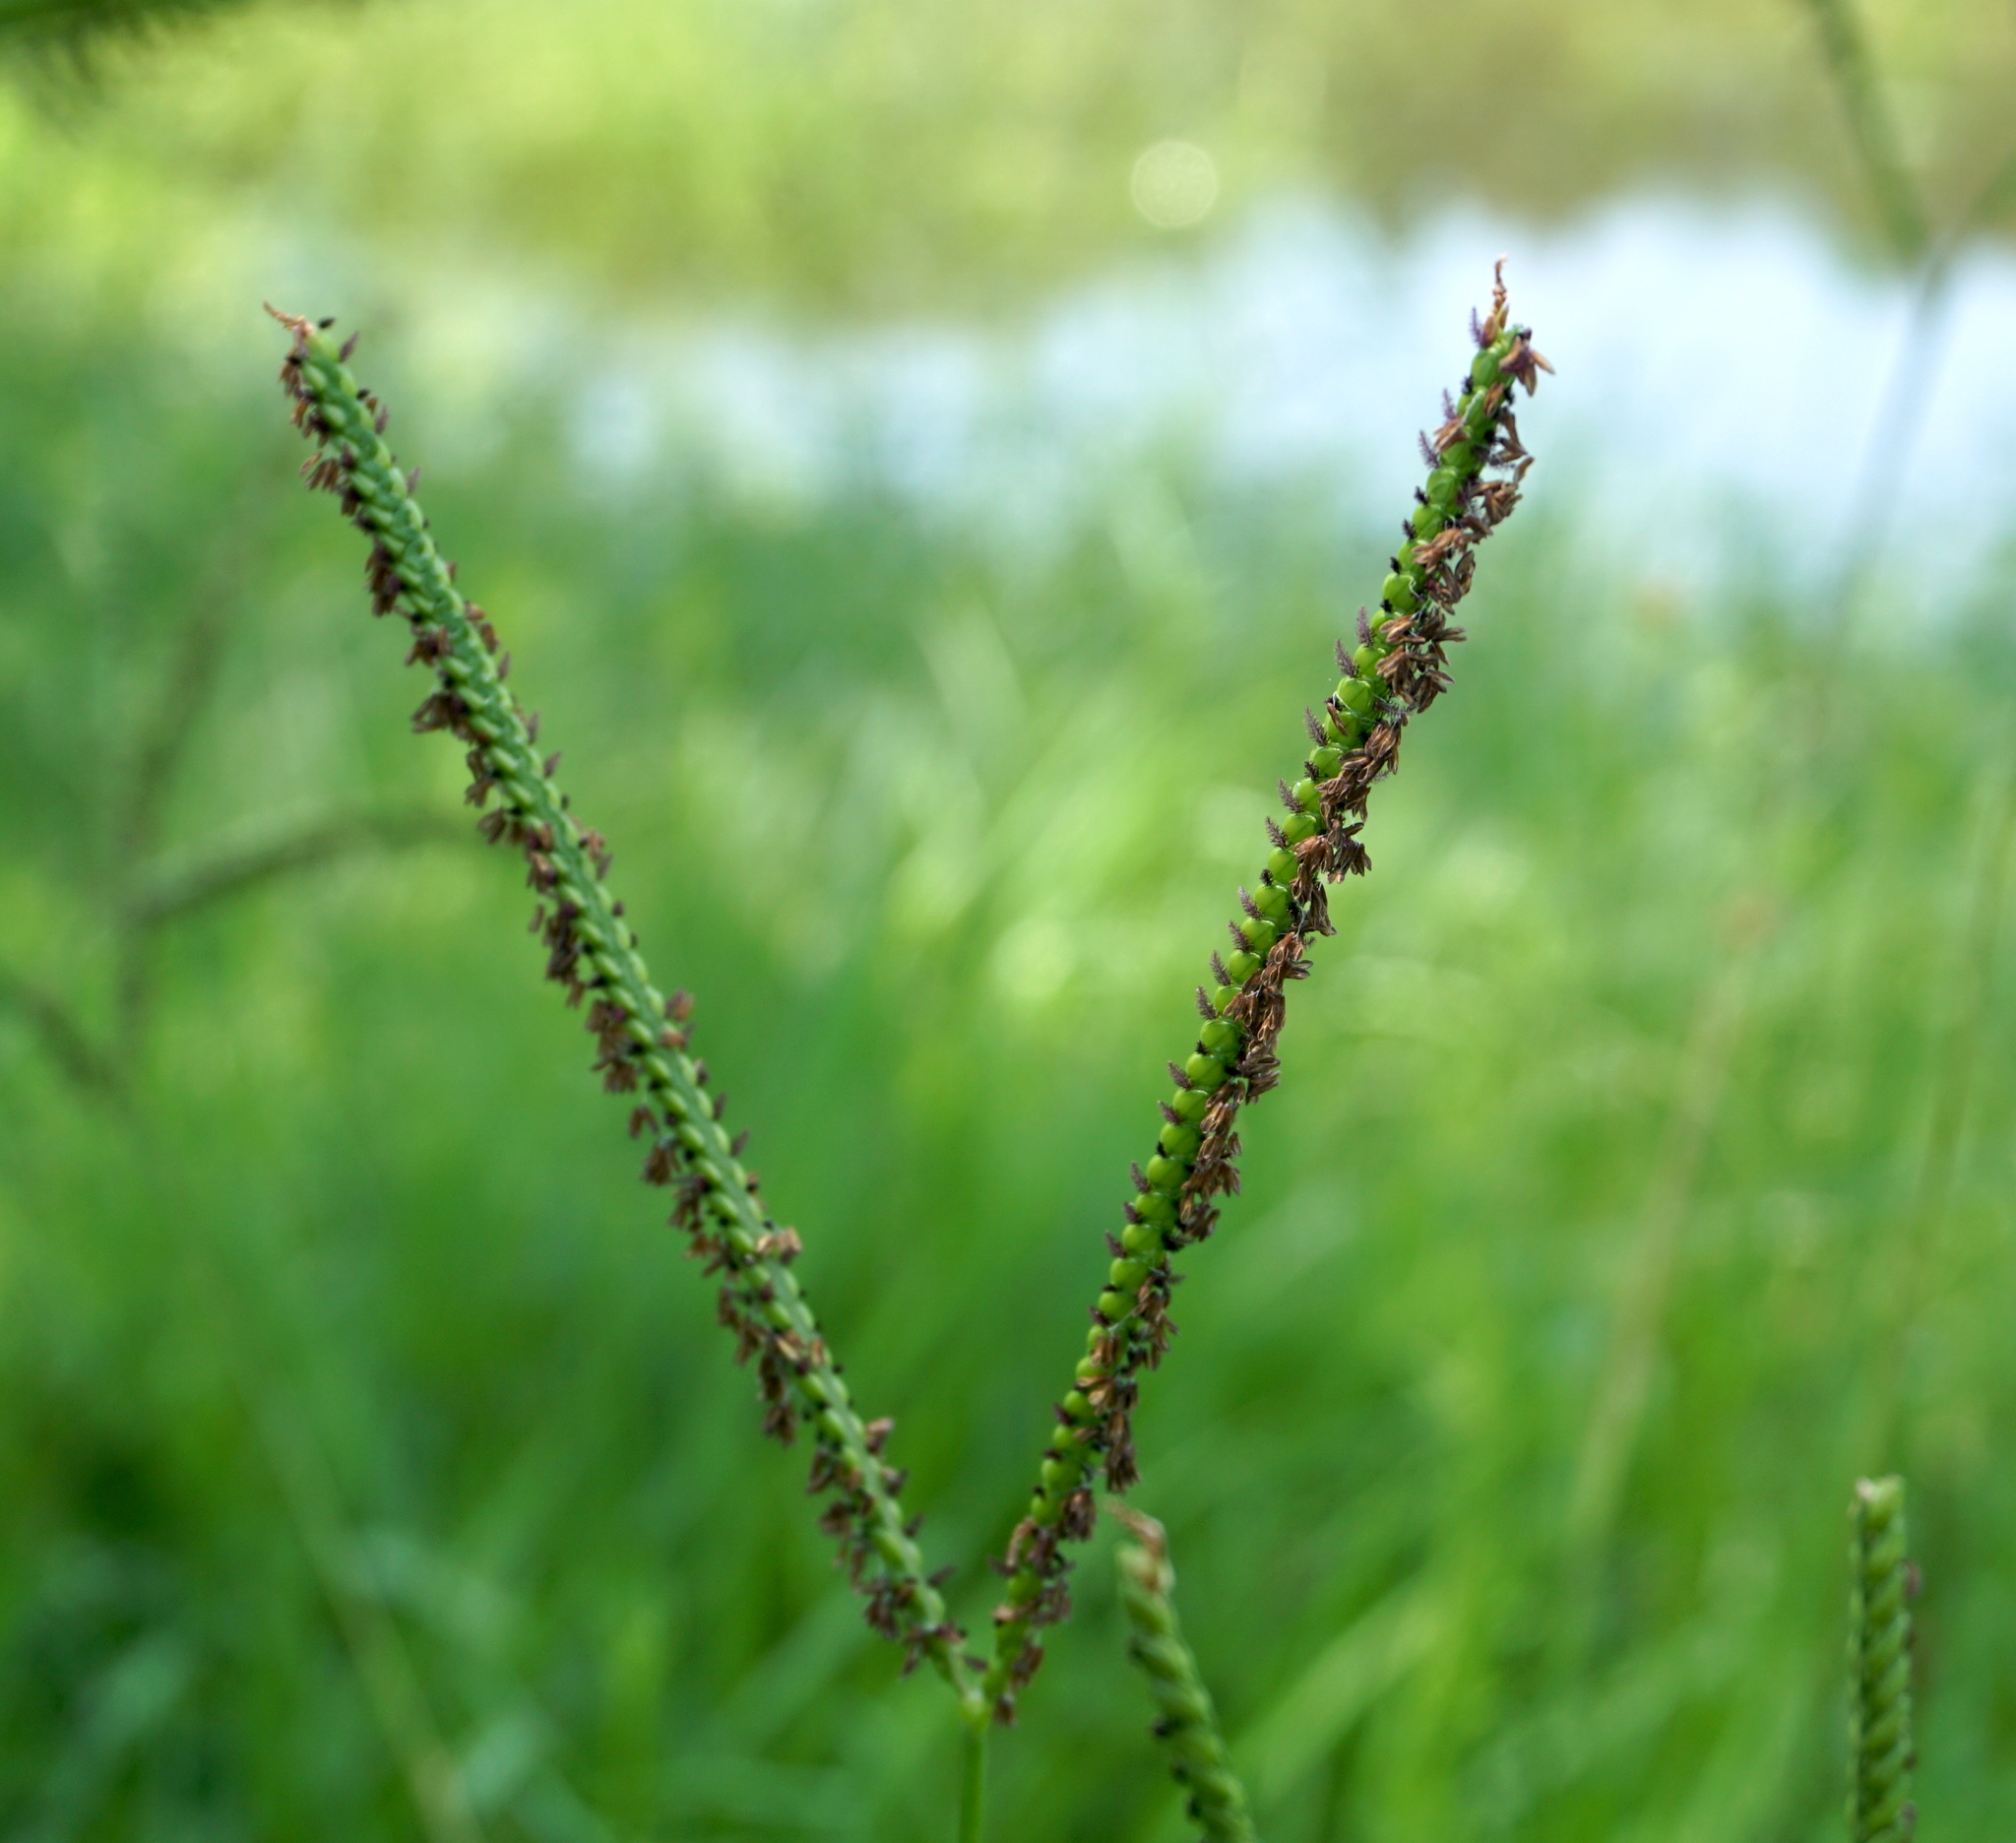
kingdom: Plantae
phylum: Tracheophyta
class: Liliopsida
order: Poales
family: Poaceae
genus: Paspalum
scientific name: Paspalum notatum
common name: Bahiagrass
